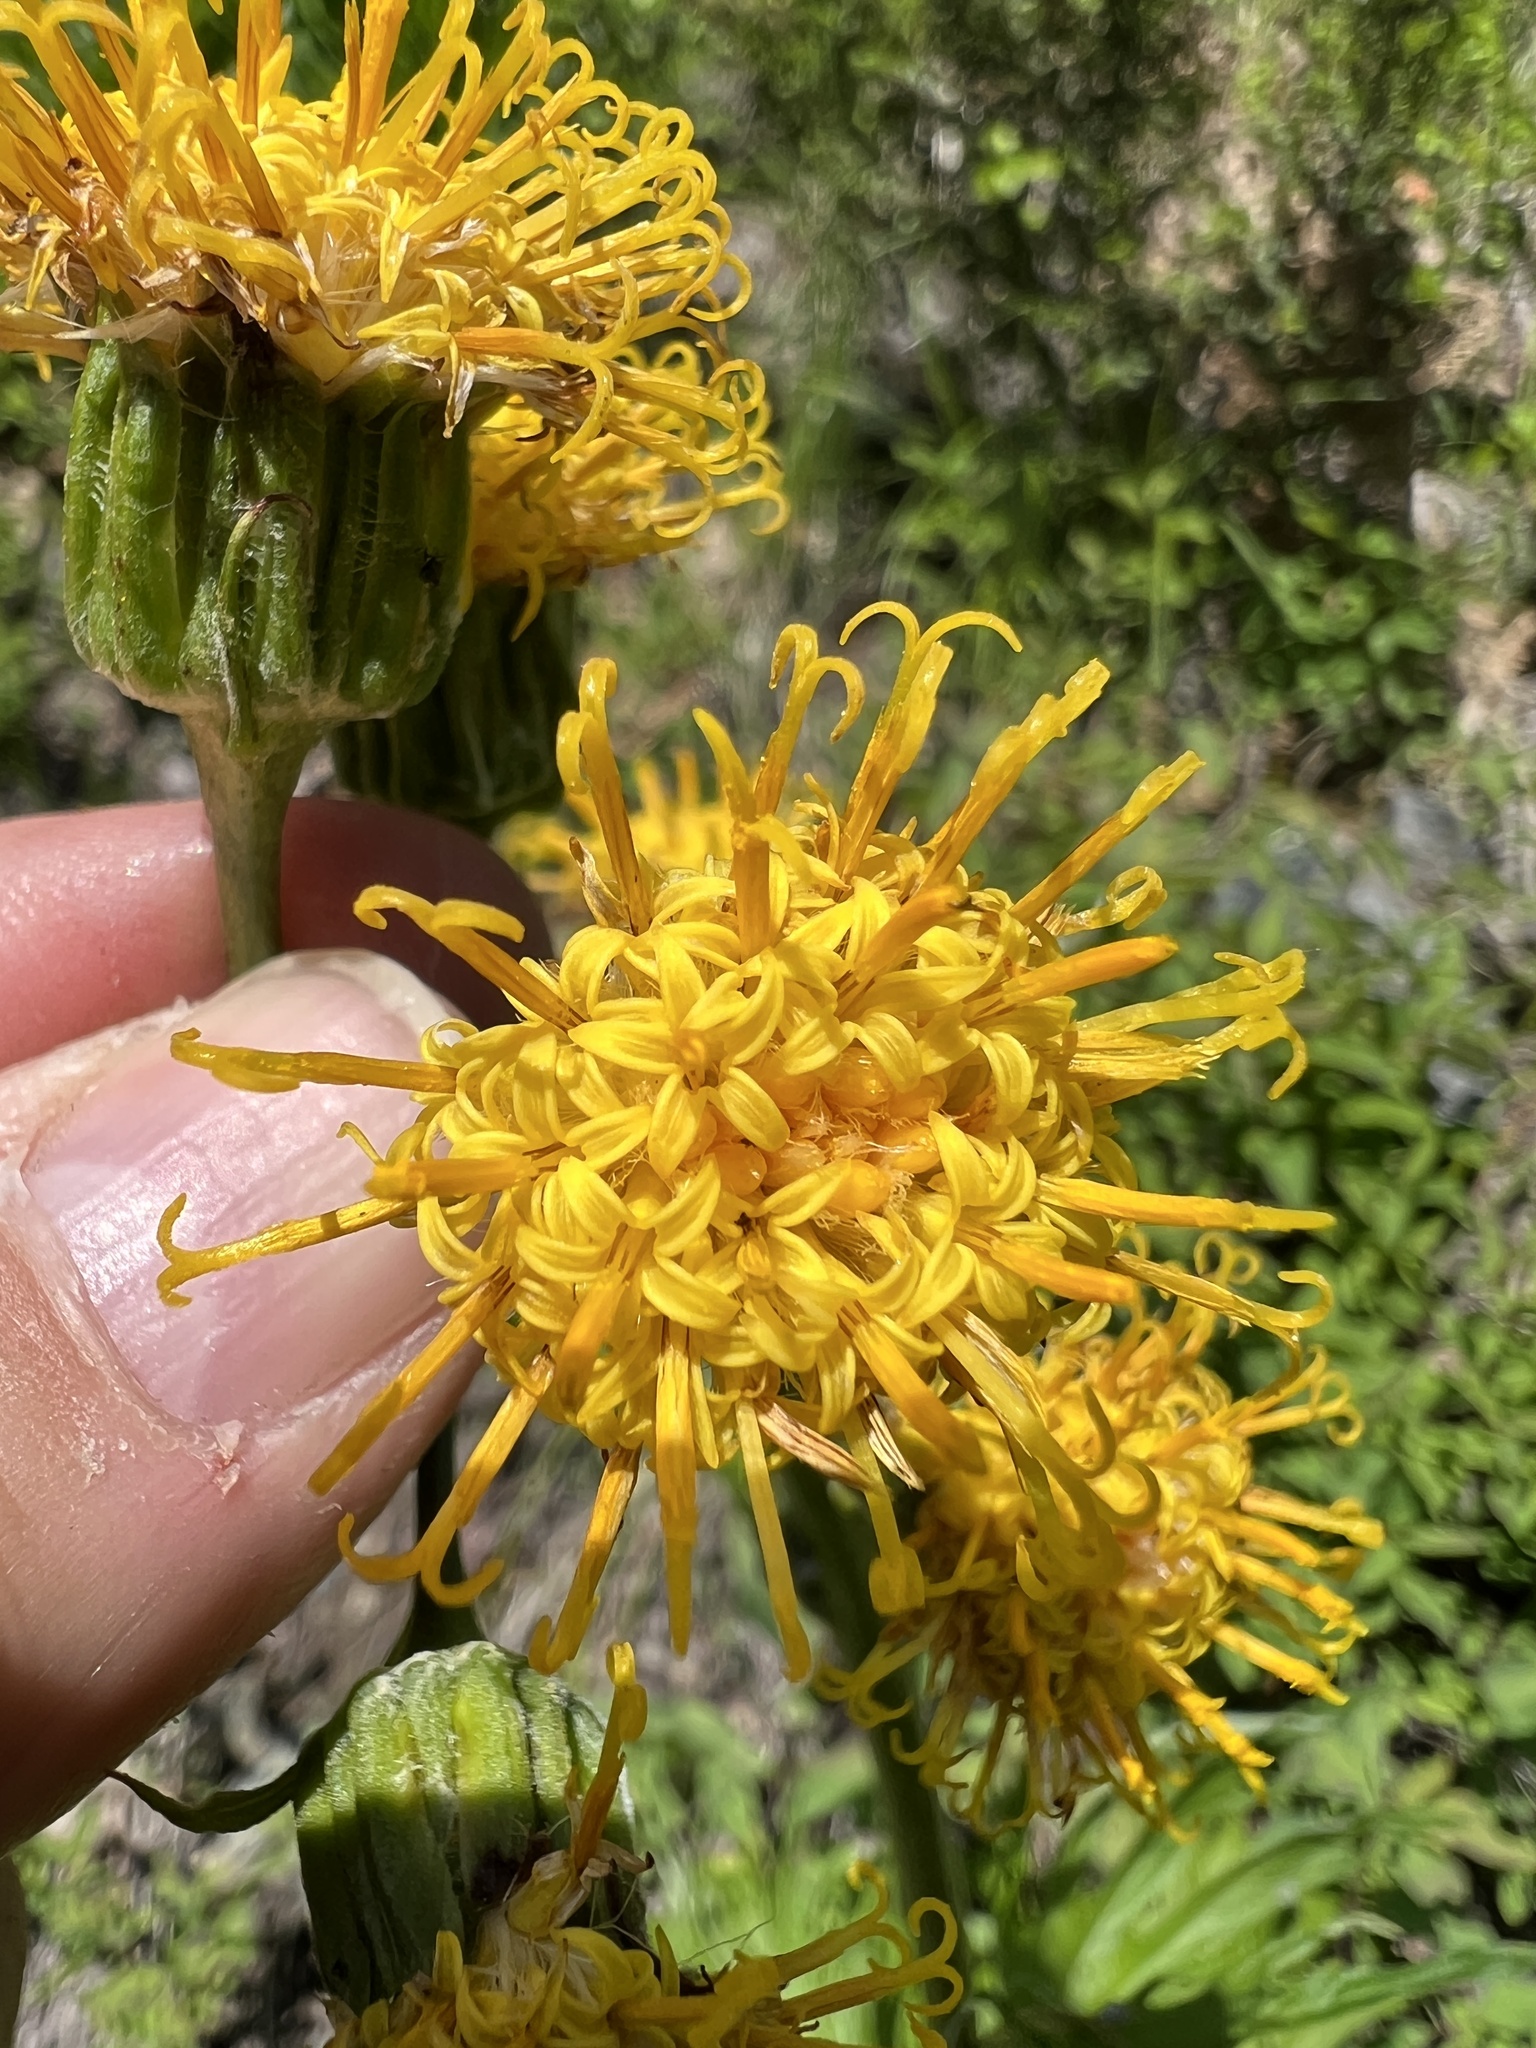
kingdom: Plantae
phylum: Tracheophyta
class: Magnoliopsida
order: Asterales
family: Asteraceae
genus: Cacaliopsis
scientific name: Cacaliopsis nardosmia
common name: Silvercrown
